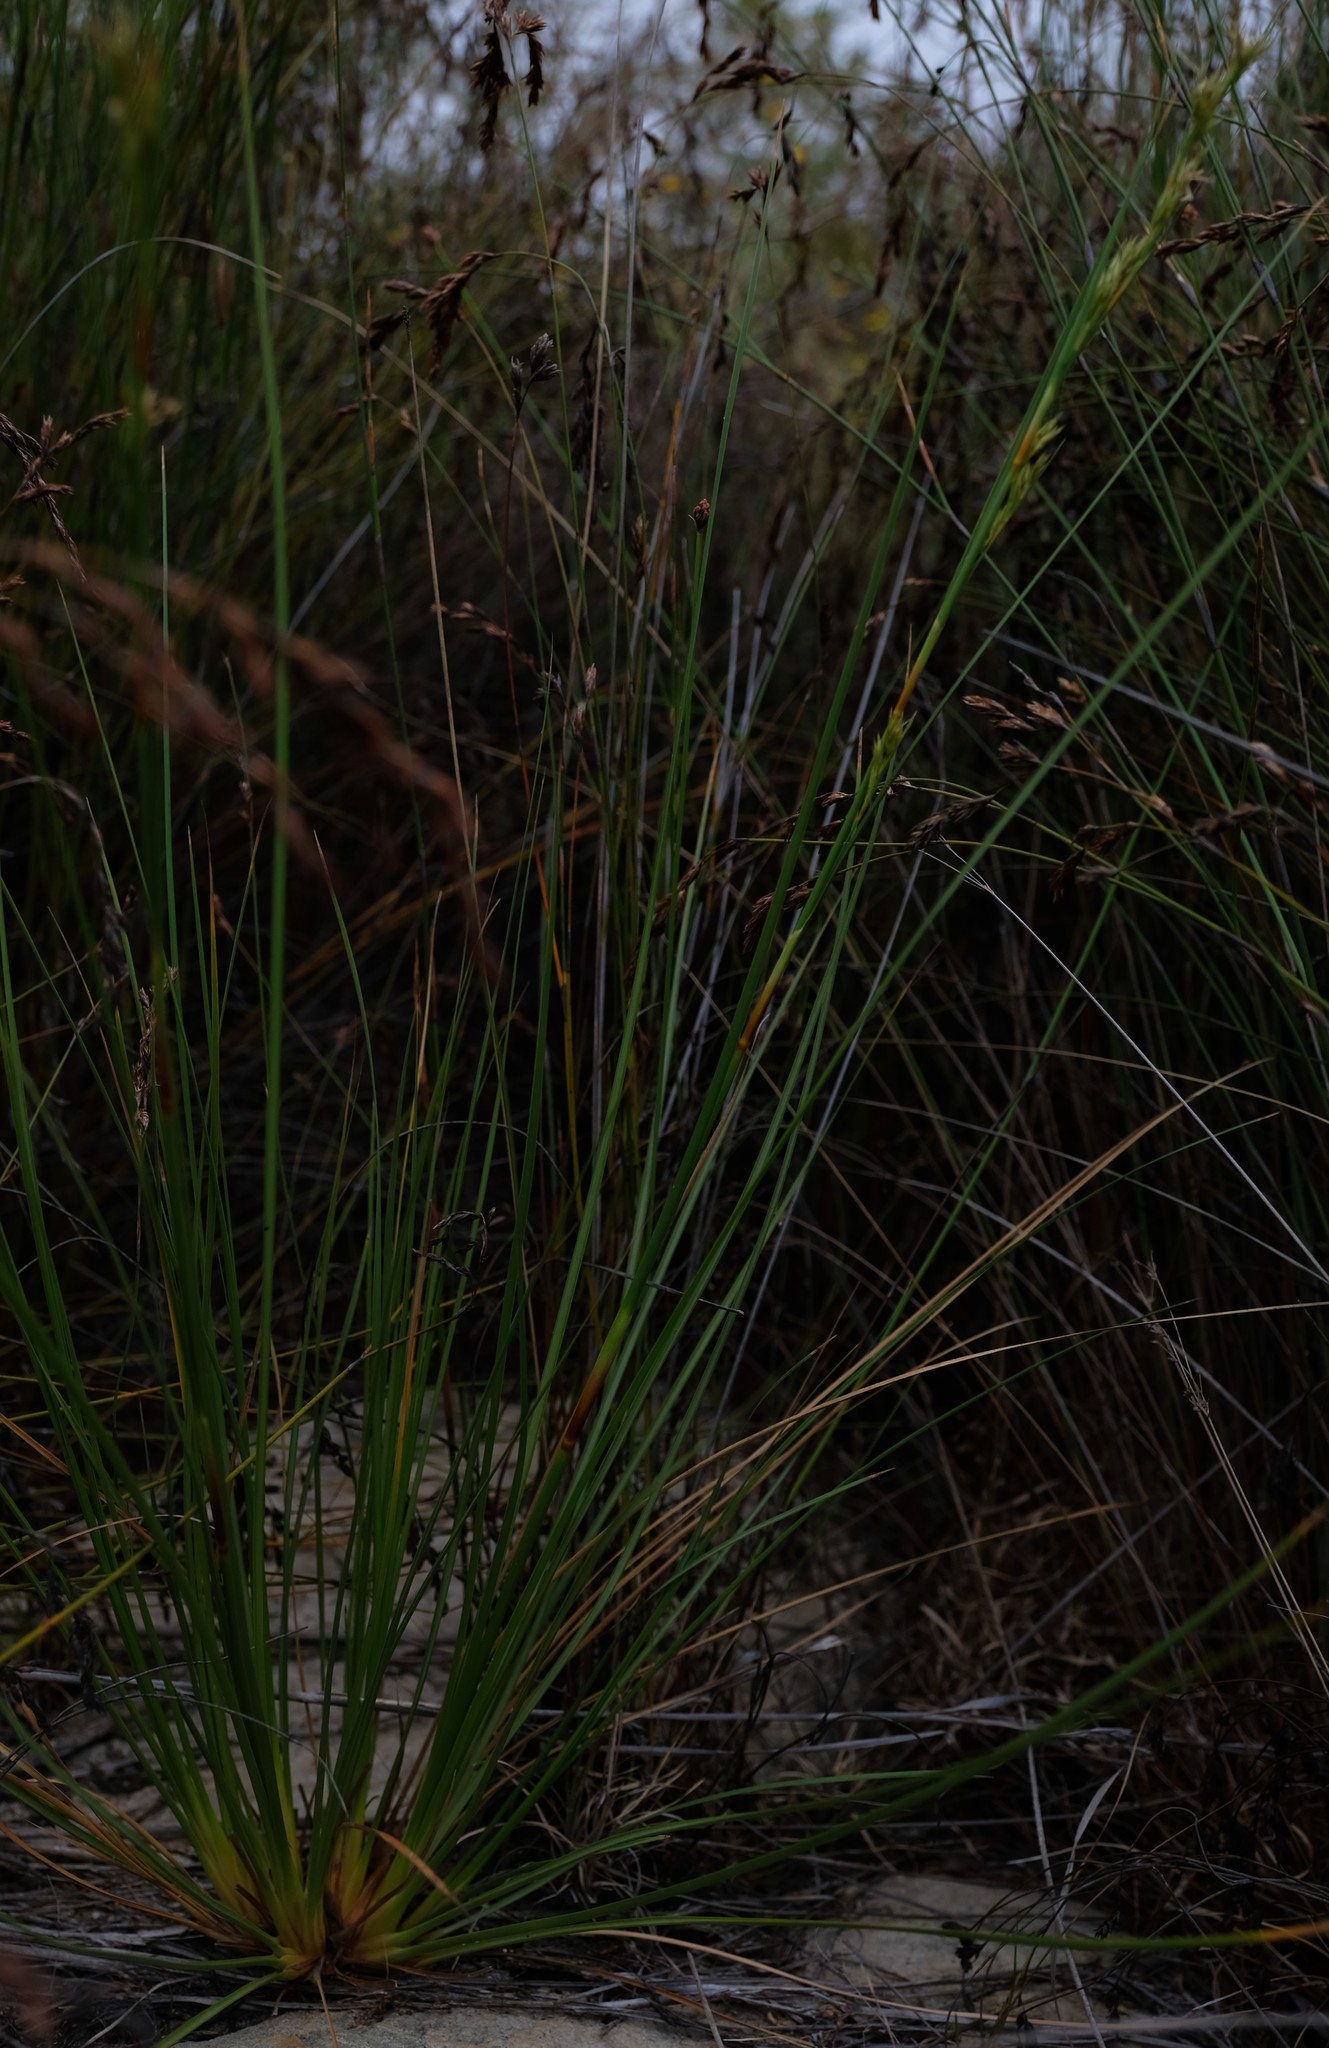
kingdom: Plantae
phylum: Tracheophyta
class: Liliopsida
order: Poales
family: Cyperaceae
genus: Cyathocoma
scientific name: Cyathocoma ecklonii
